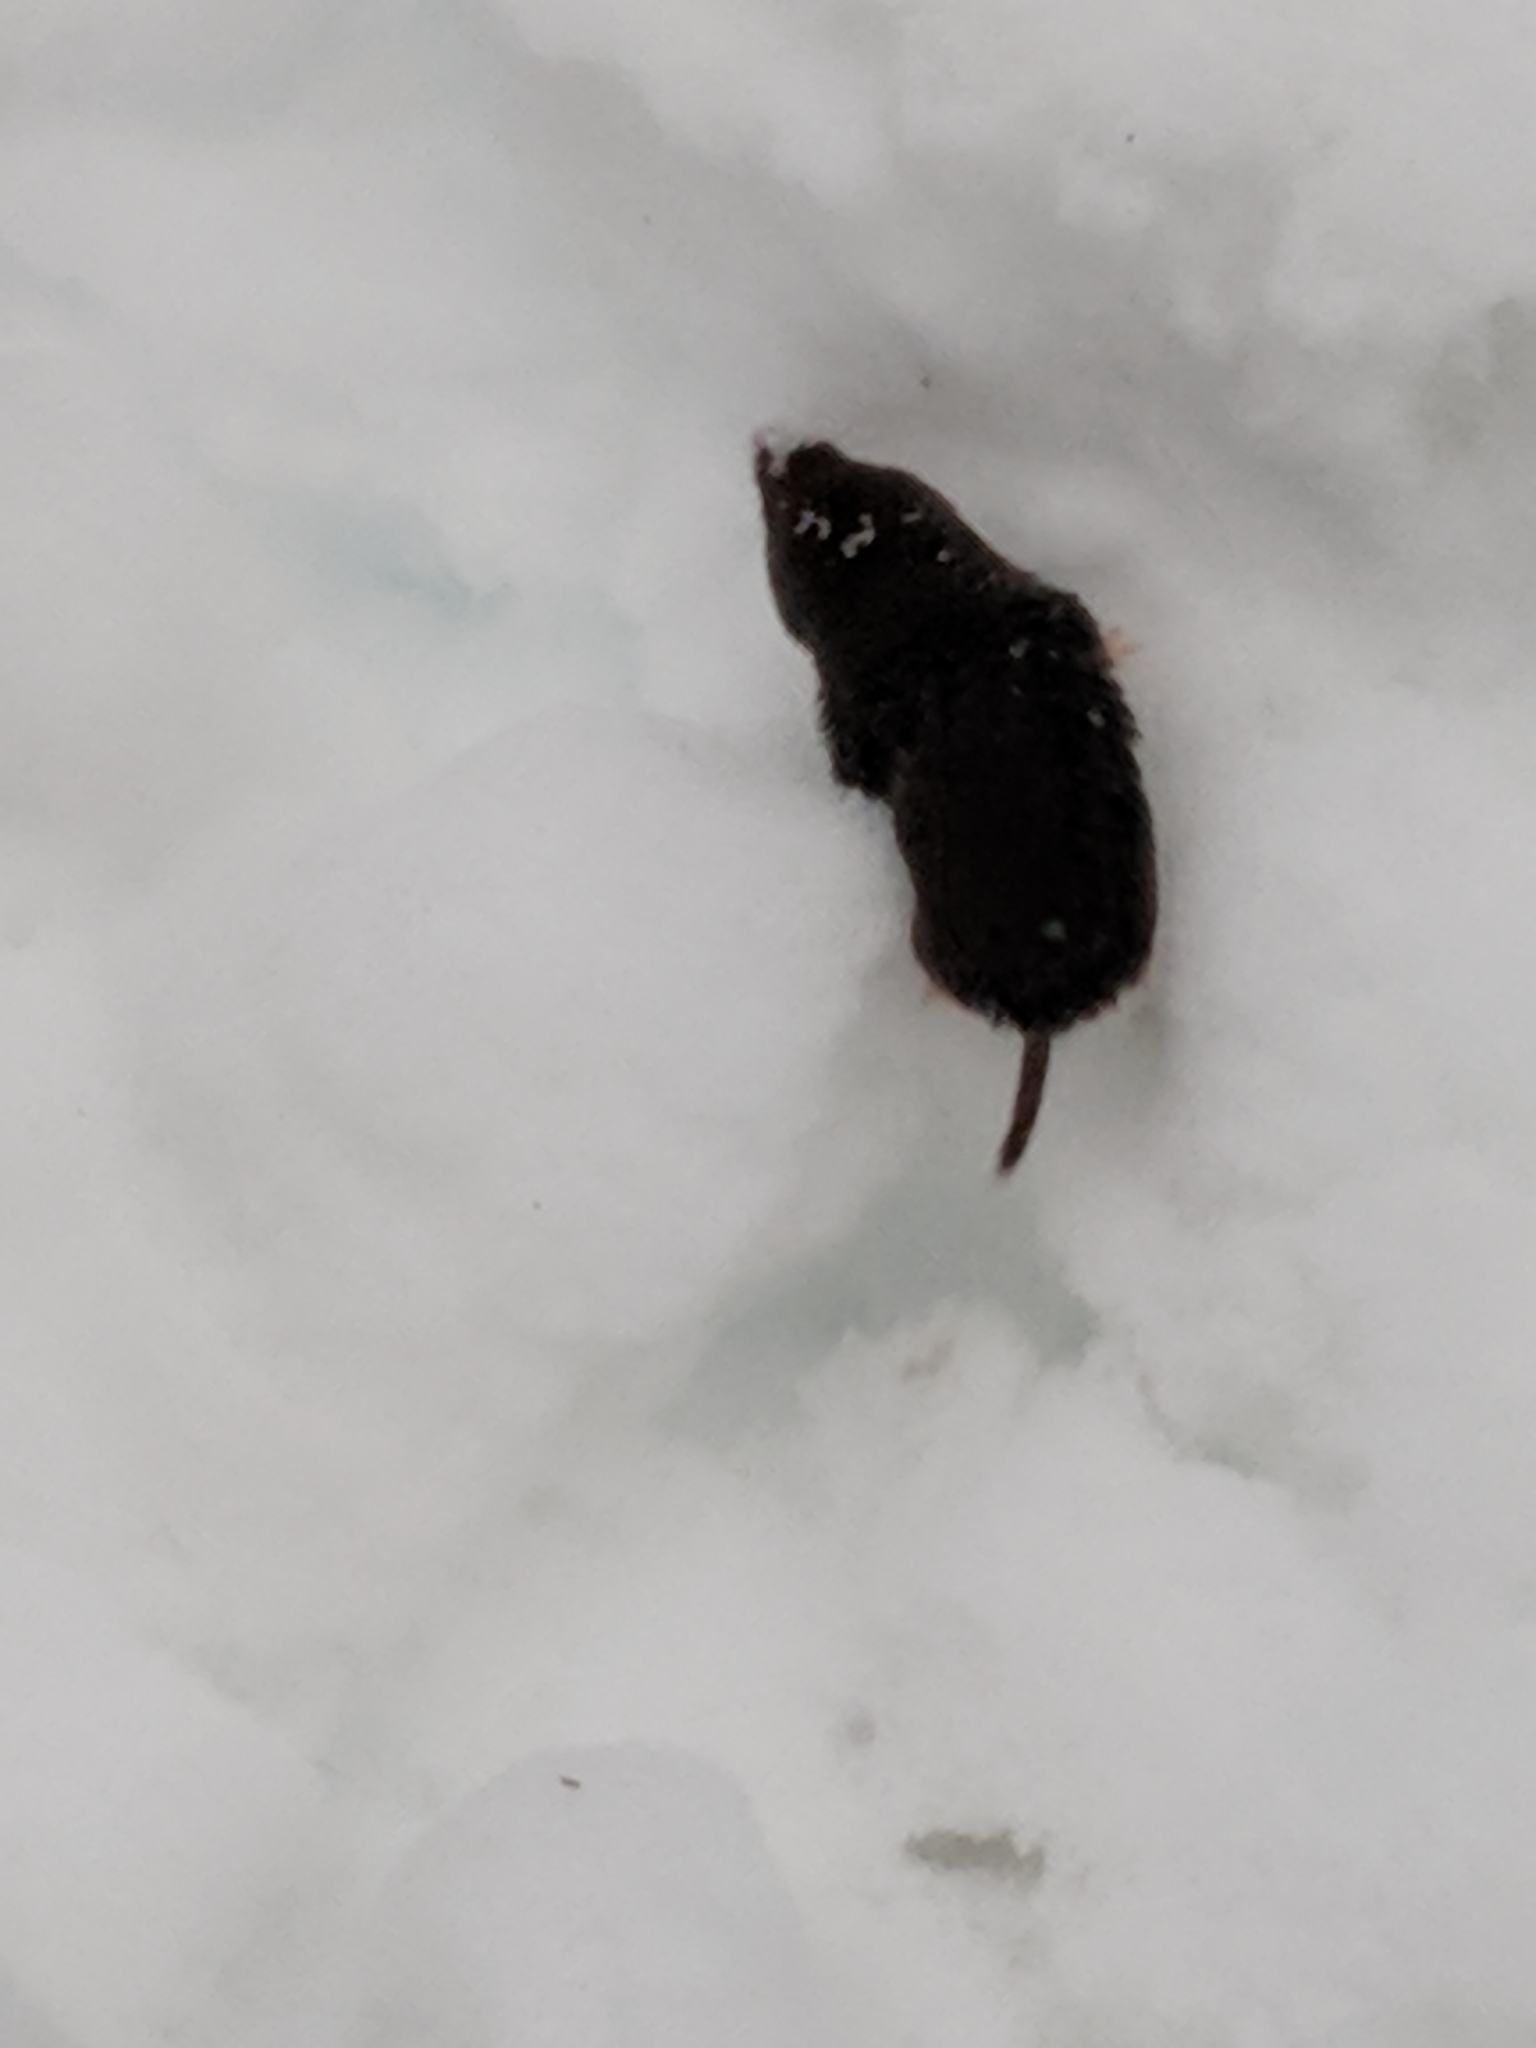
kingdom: Animalia
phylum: Chordata
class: Mammalia
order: Soricomorpha
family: Soricidae
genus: Blarina
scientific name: Blarina brevicauda
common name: Northern short-tailed shrew
